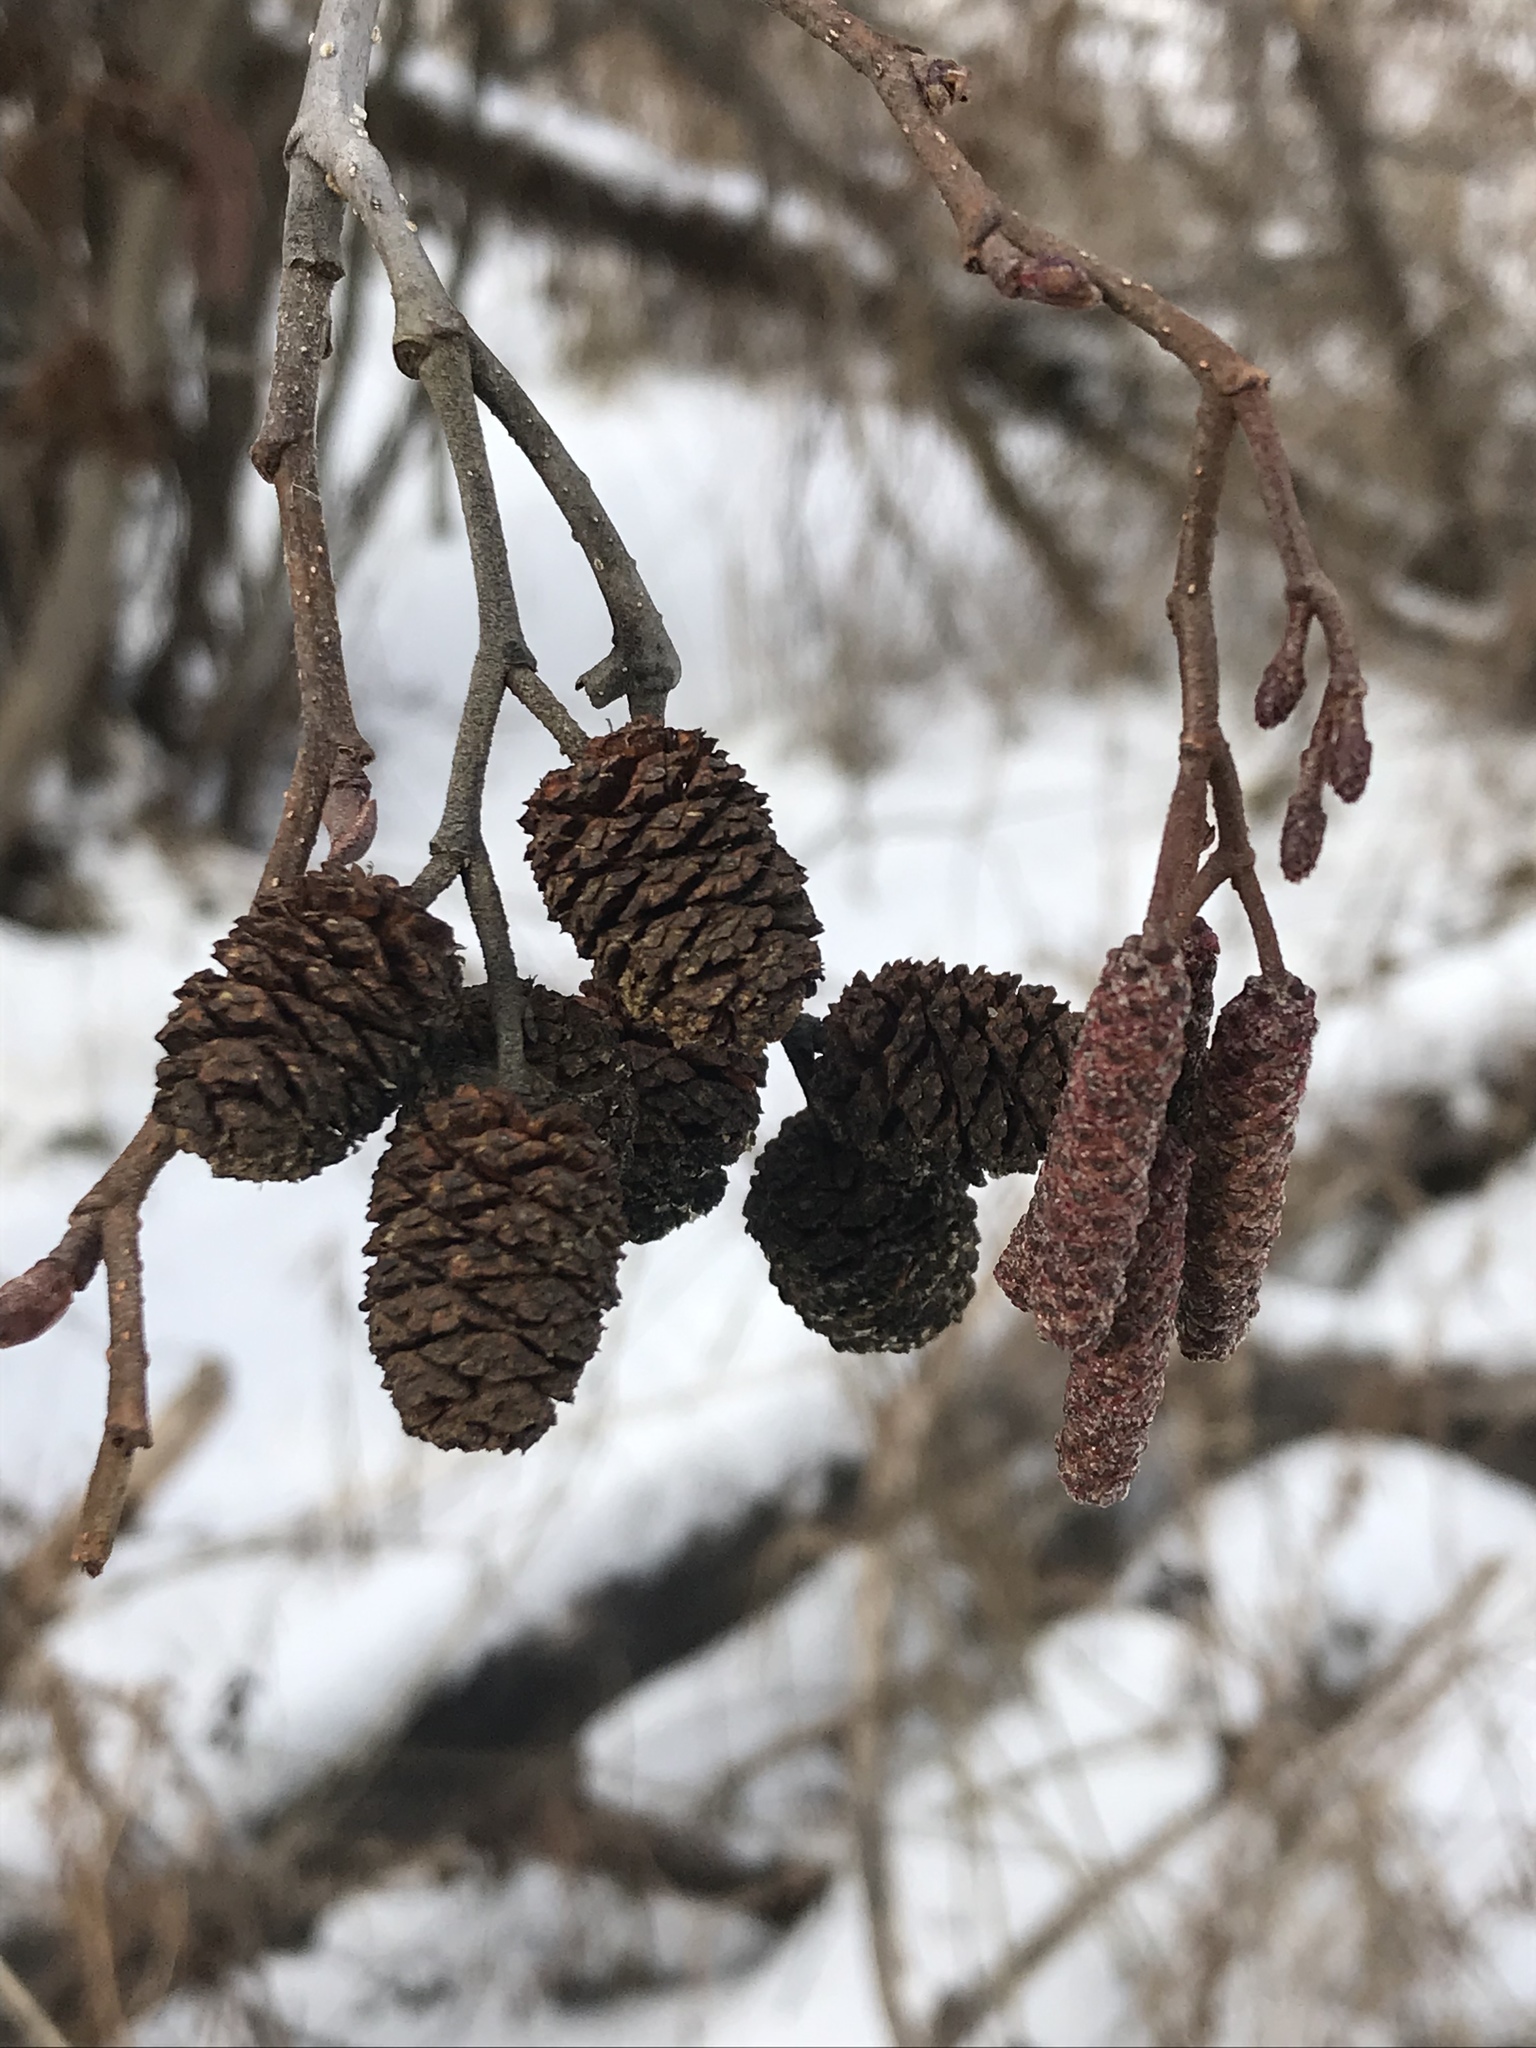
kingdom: Plantae
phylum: Tracheophyta
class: Magnoliopsida
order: Fagales
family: Betulaceae
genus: Alnus
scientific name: Alnus incana
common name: Grey alder
